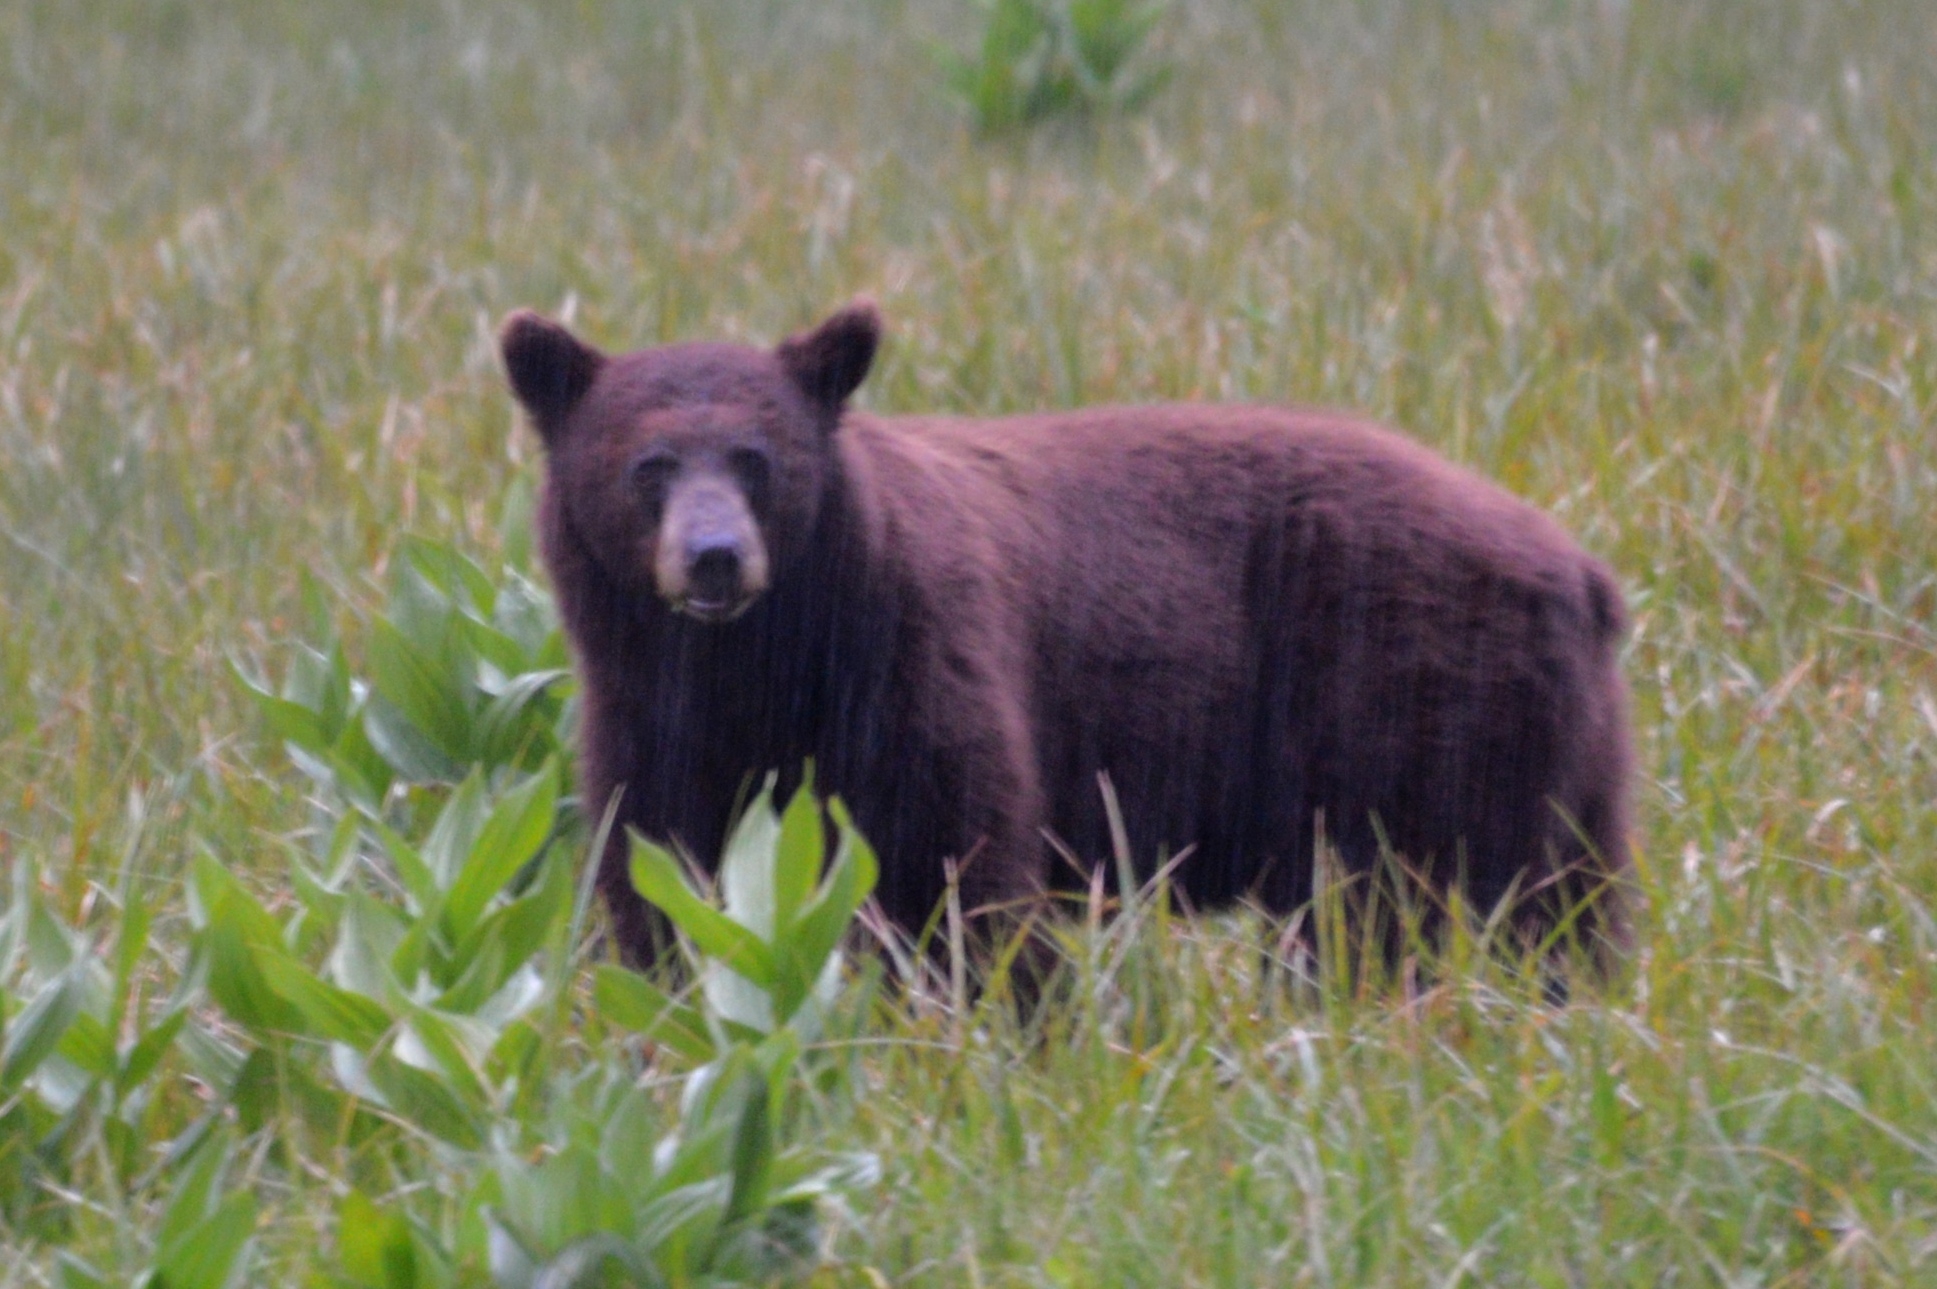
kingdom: Animalia
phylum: Chordata
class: Mammalia
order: Carnivora
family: Ursidae
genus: Ursus
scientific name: Ursus americanus
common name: American black bear
